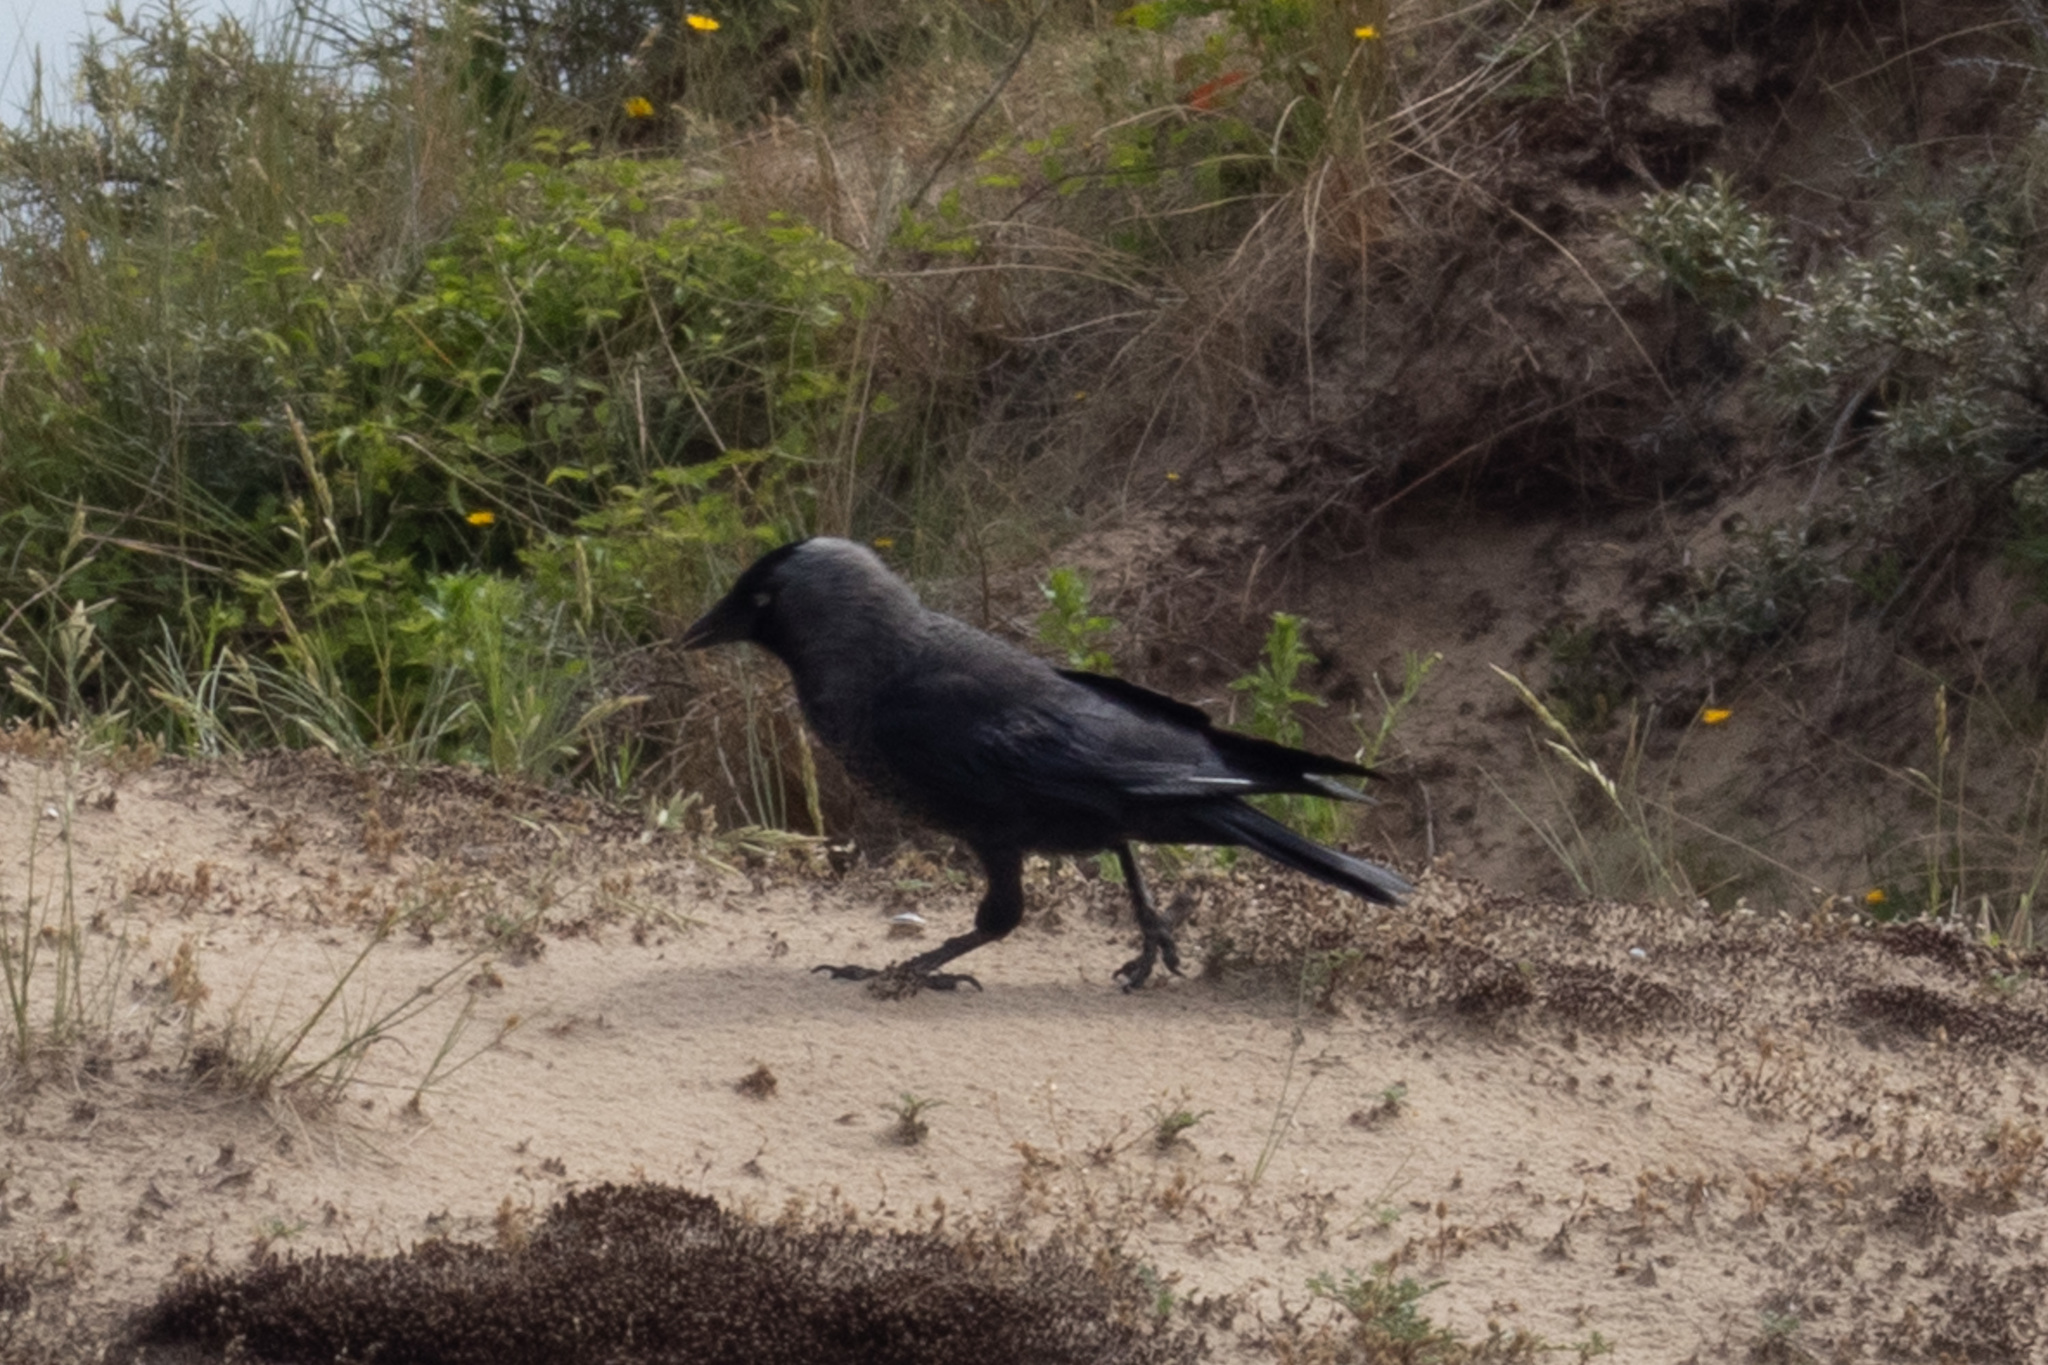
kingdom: Animalia
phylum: Chordata
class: Aves
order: Passeriformes
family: Corvidae
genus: Coloeus
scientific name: Coloeus monedula
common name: Western jackdaw
